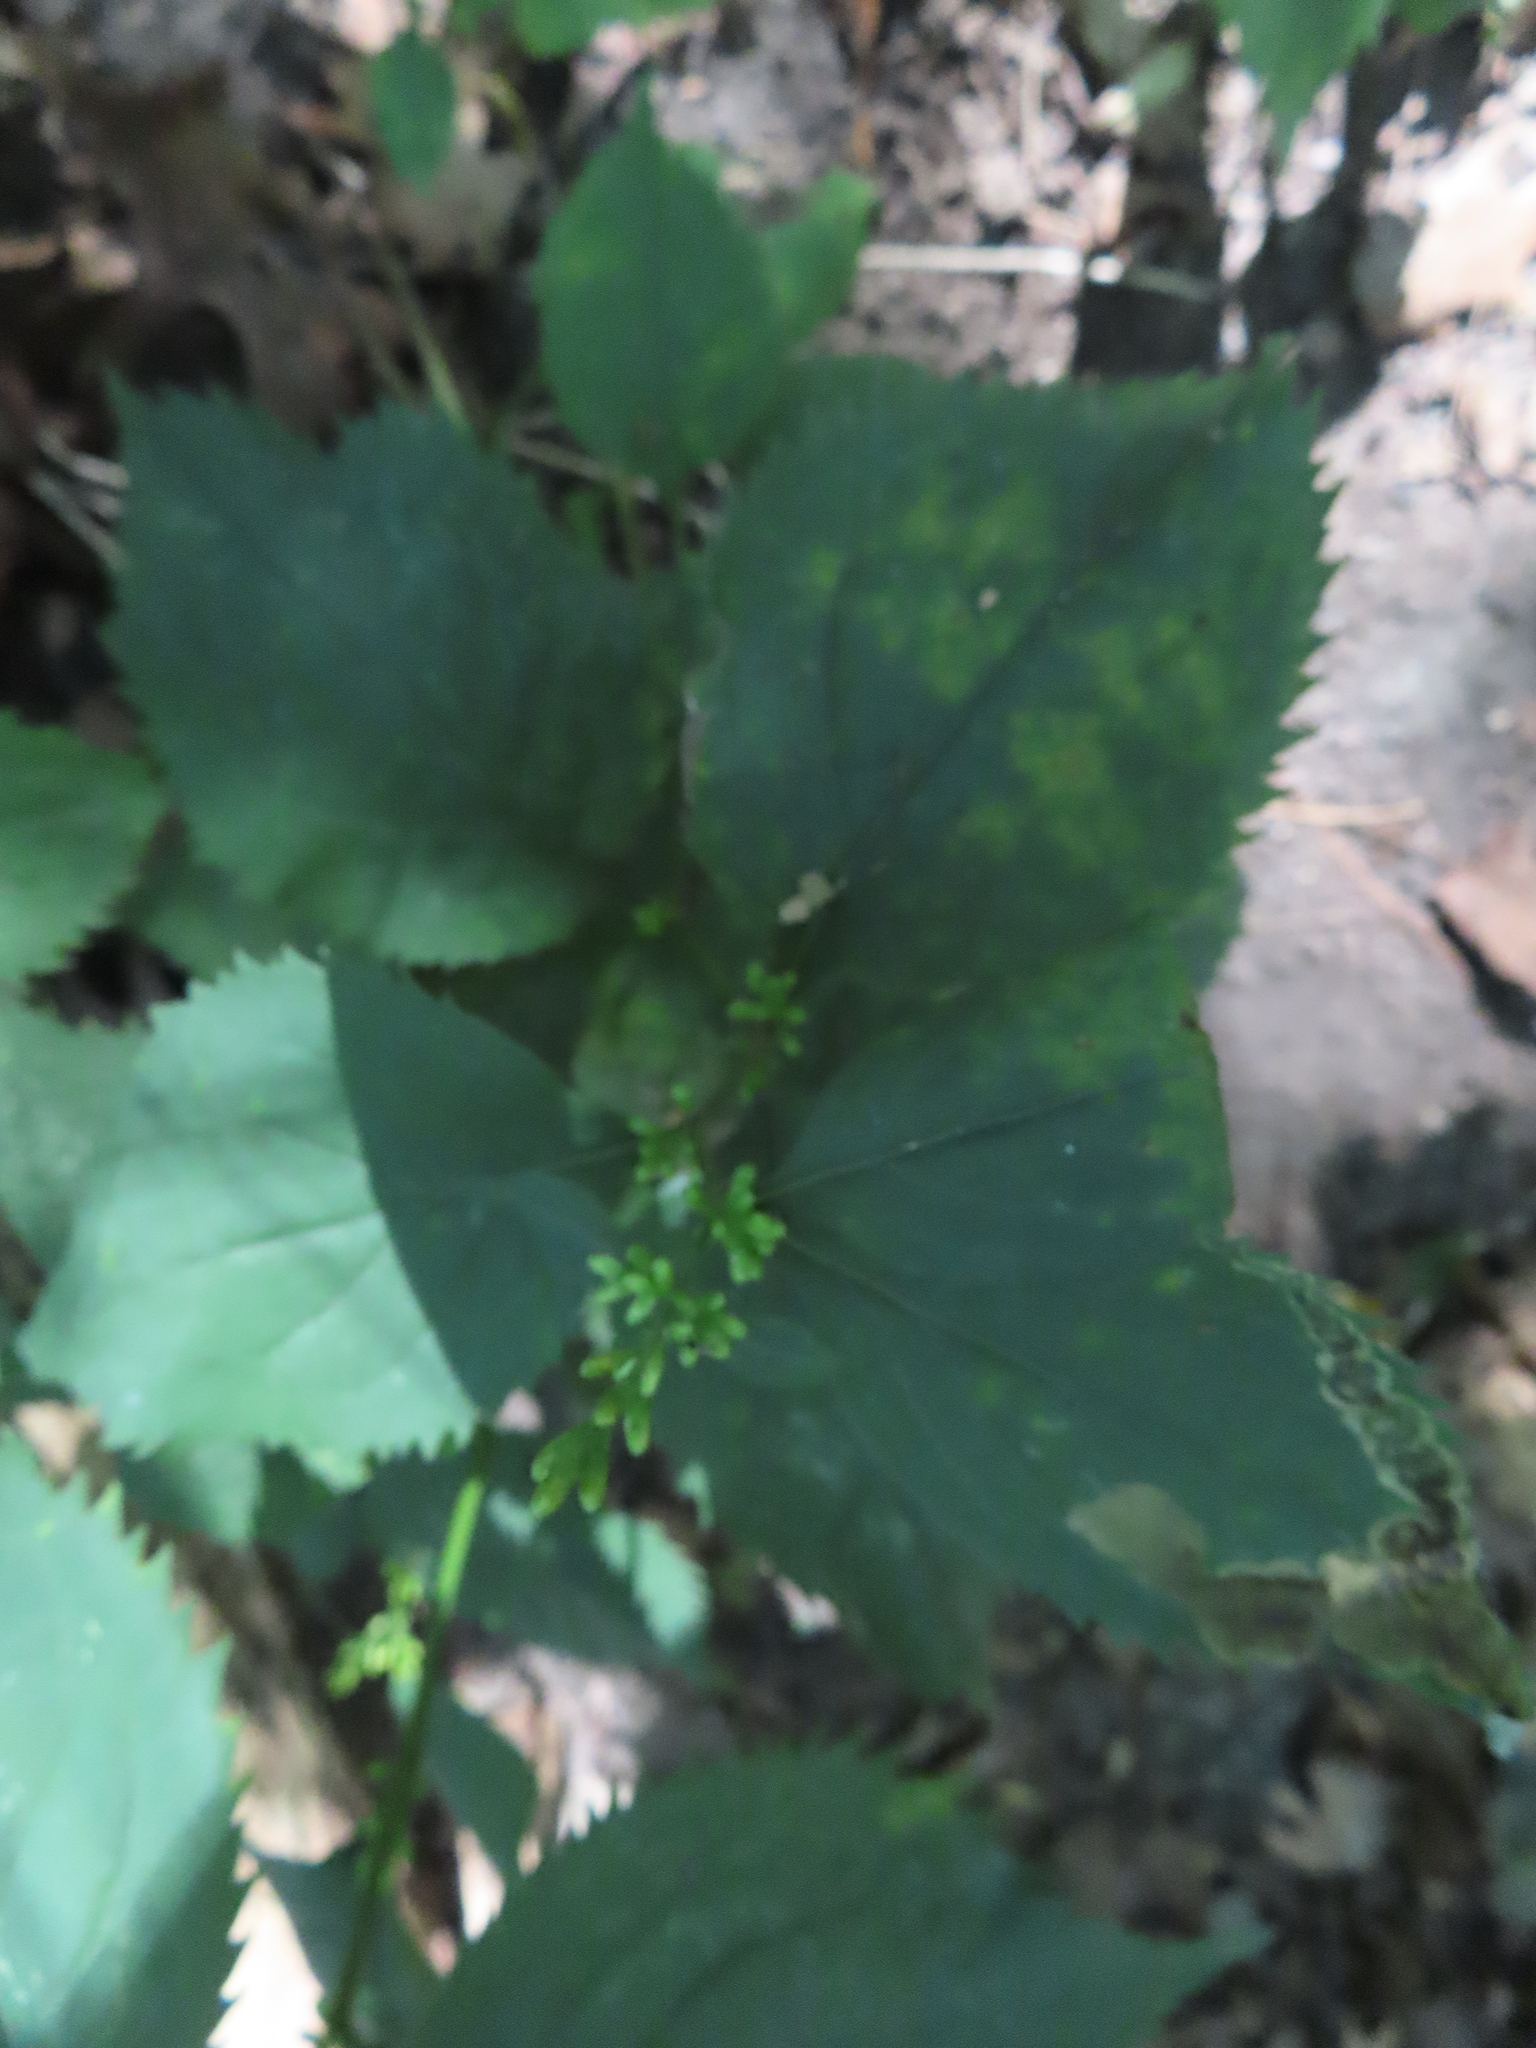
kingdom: Plantae
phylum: Tracheophyta
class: Magnoliopsida
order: Asterales
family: Asteraceae
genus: Solidago
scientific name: Solidago flexicaulis
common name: Zig-zag goldenrod
